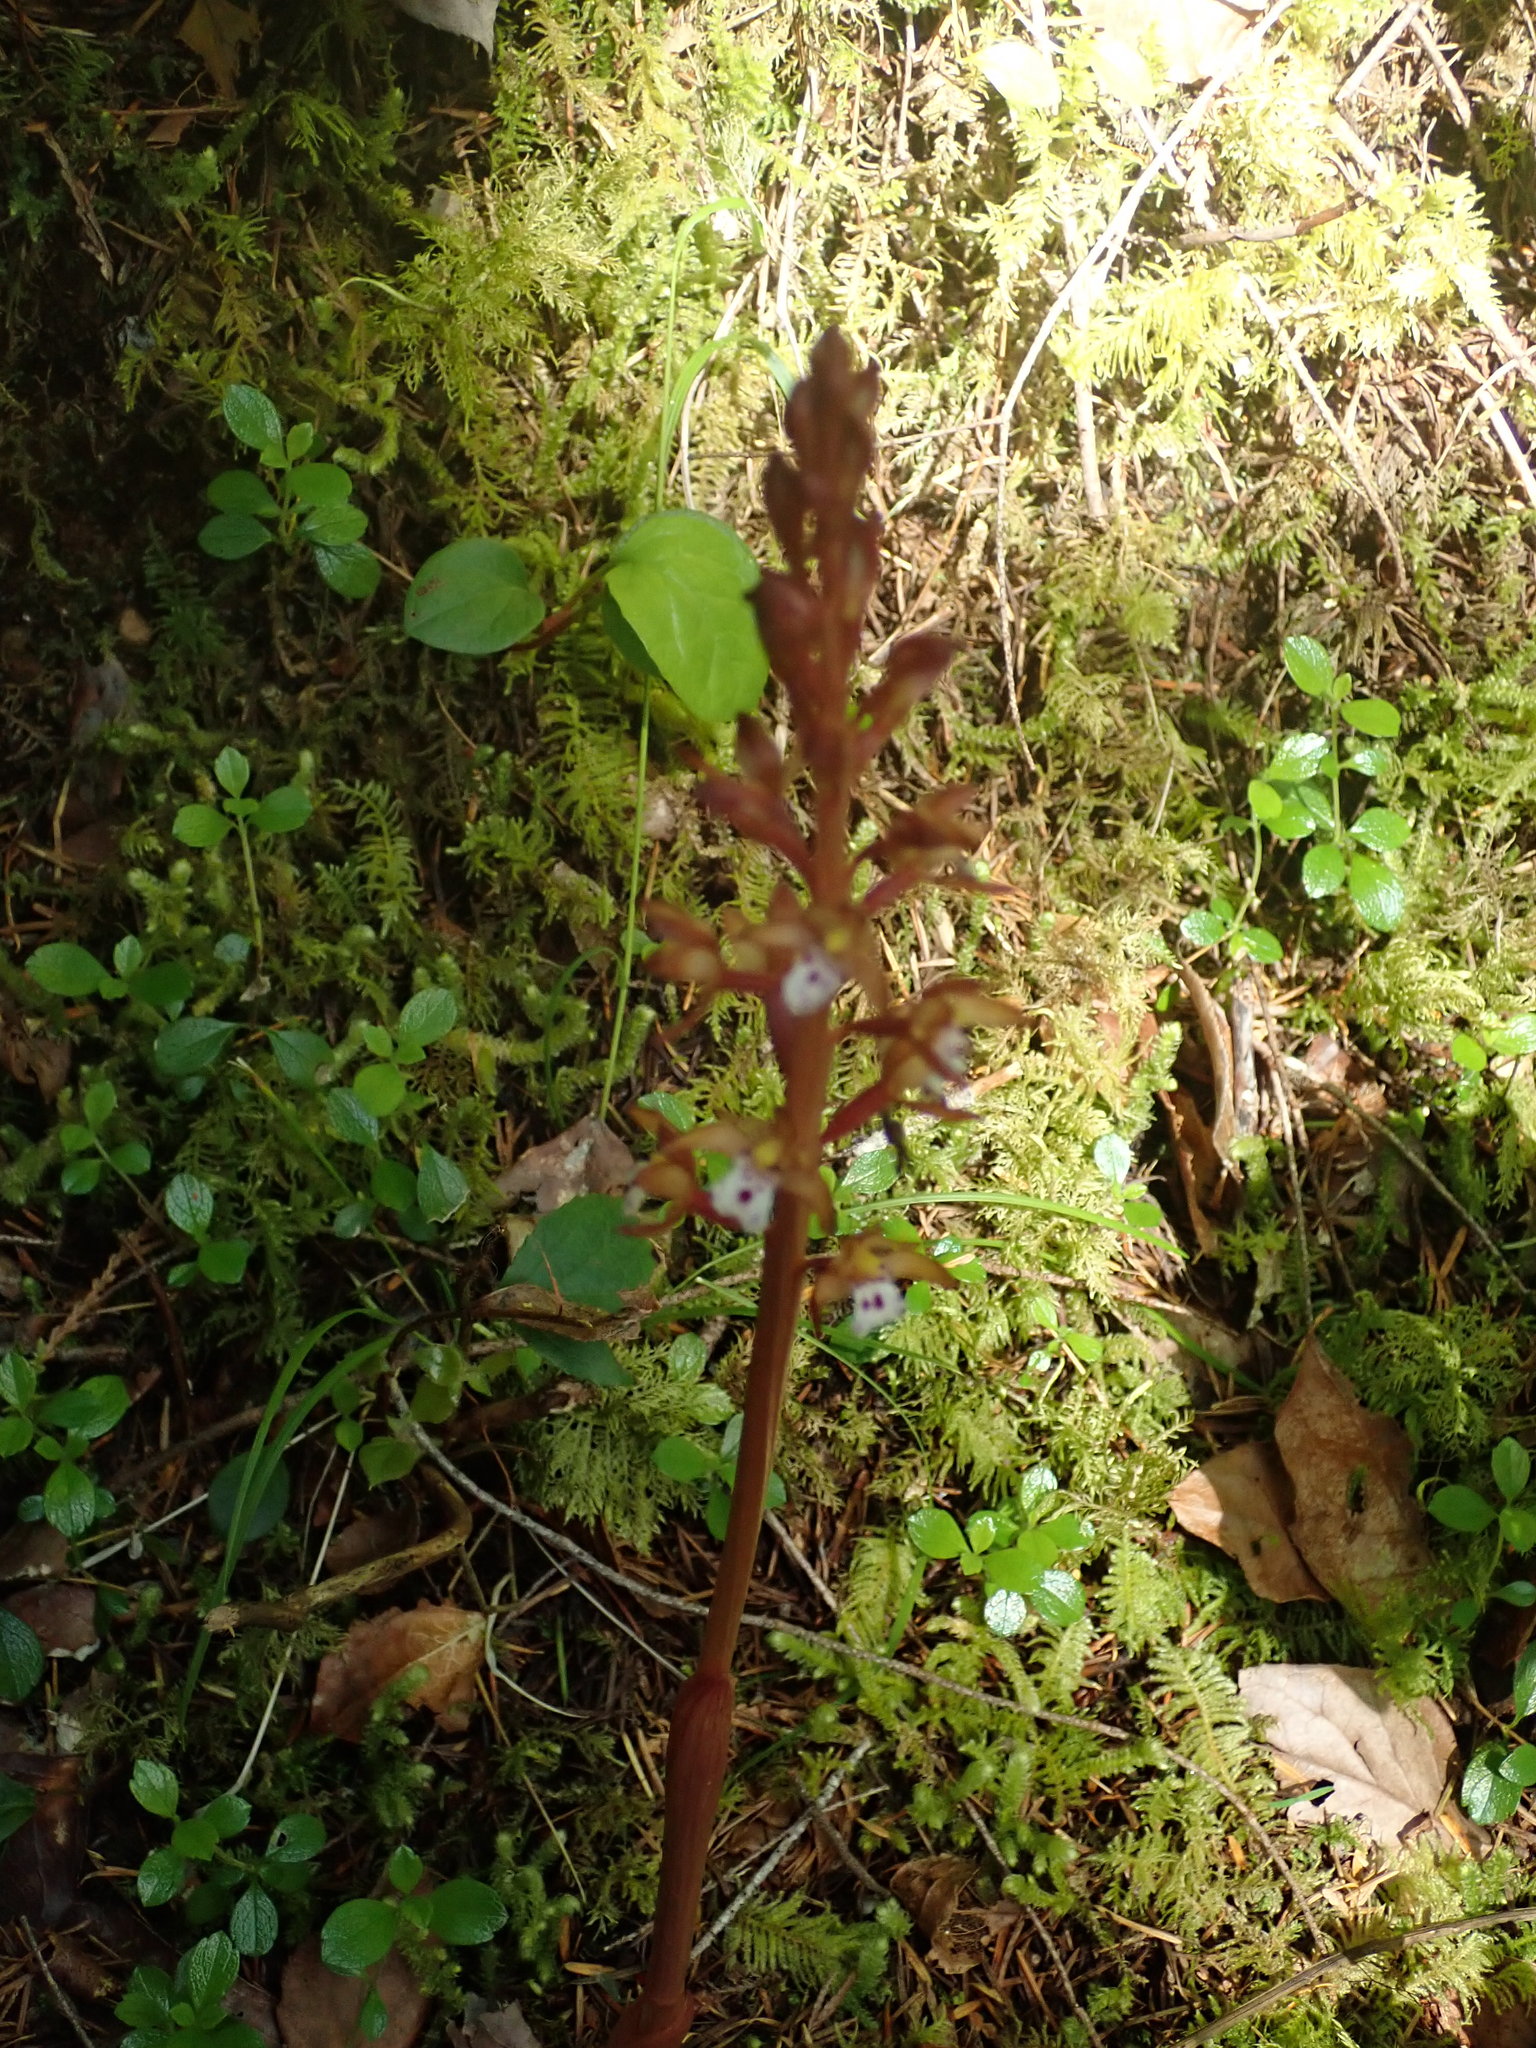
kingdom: Plantae
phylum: Tracheophyta
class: Liliopsida
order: Asparagales
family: Orchidaceae
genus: Corallorhiza
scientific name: Corallorhiza maculata
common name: Spotted coralroot
